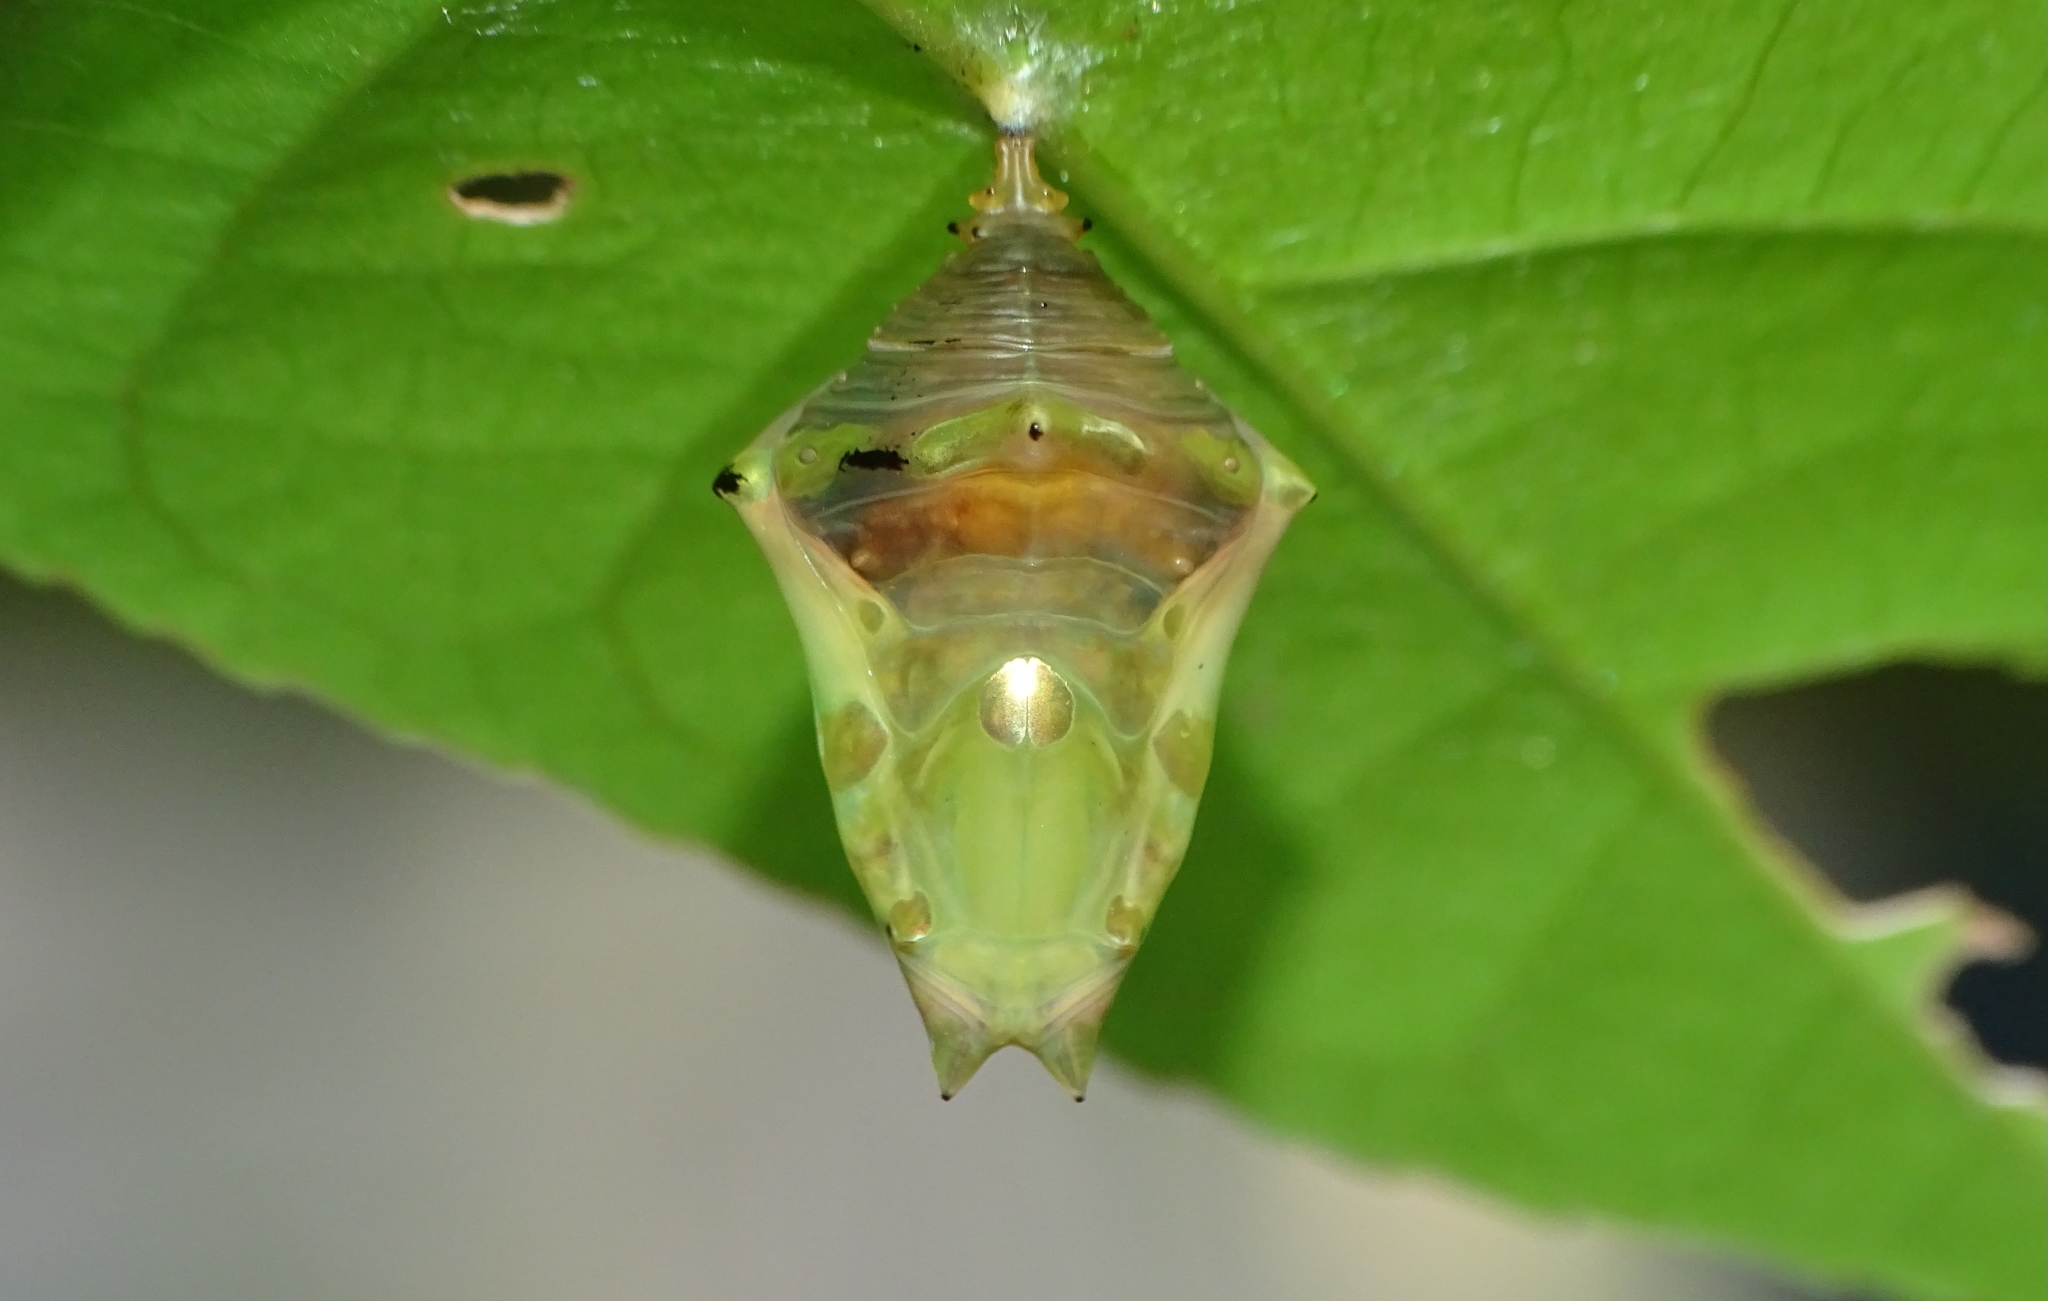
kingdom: Animalia
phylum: Arthropoda
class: Insecta
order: Lepidoptera
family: Nymphalidae
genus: Tanaecia
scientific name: Tanaecia lepidea
